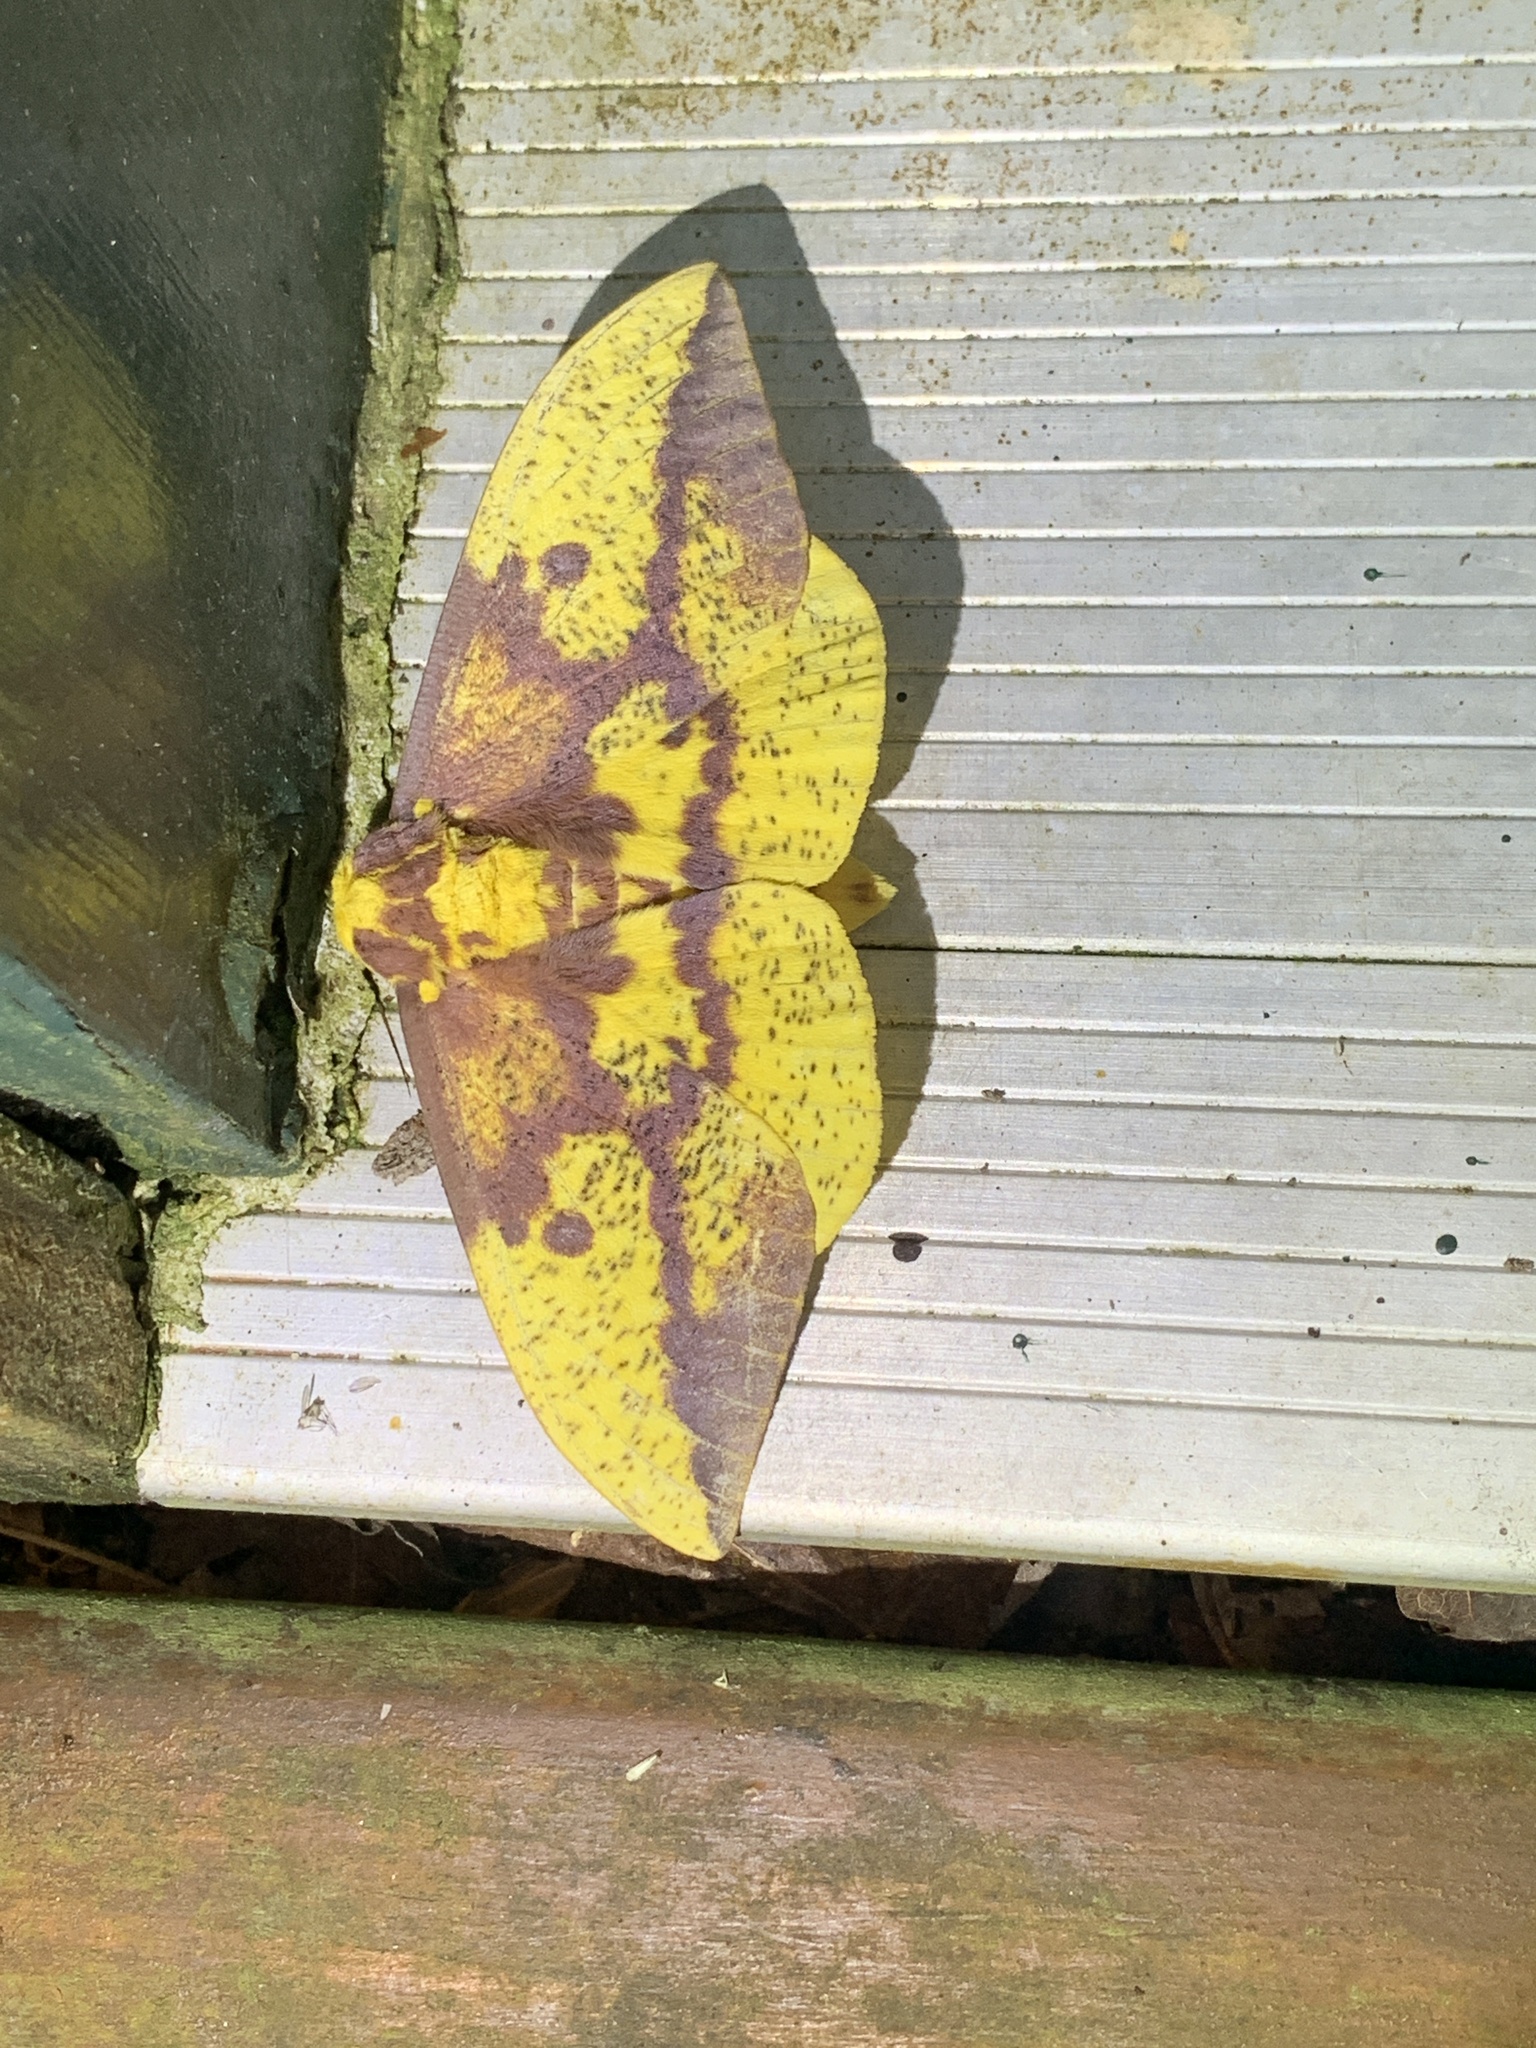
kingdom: Animalia
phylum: Arthropoda
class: Insecta
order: Lepidoptera
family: Saturniidae
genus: Eacles
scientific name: Eacles imperialis
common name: Imperial moth
